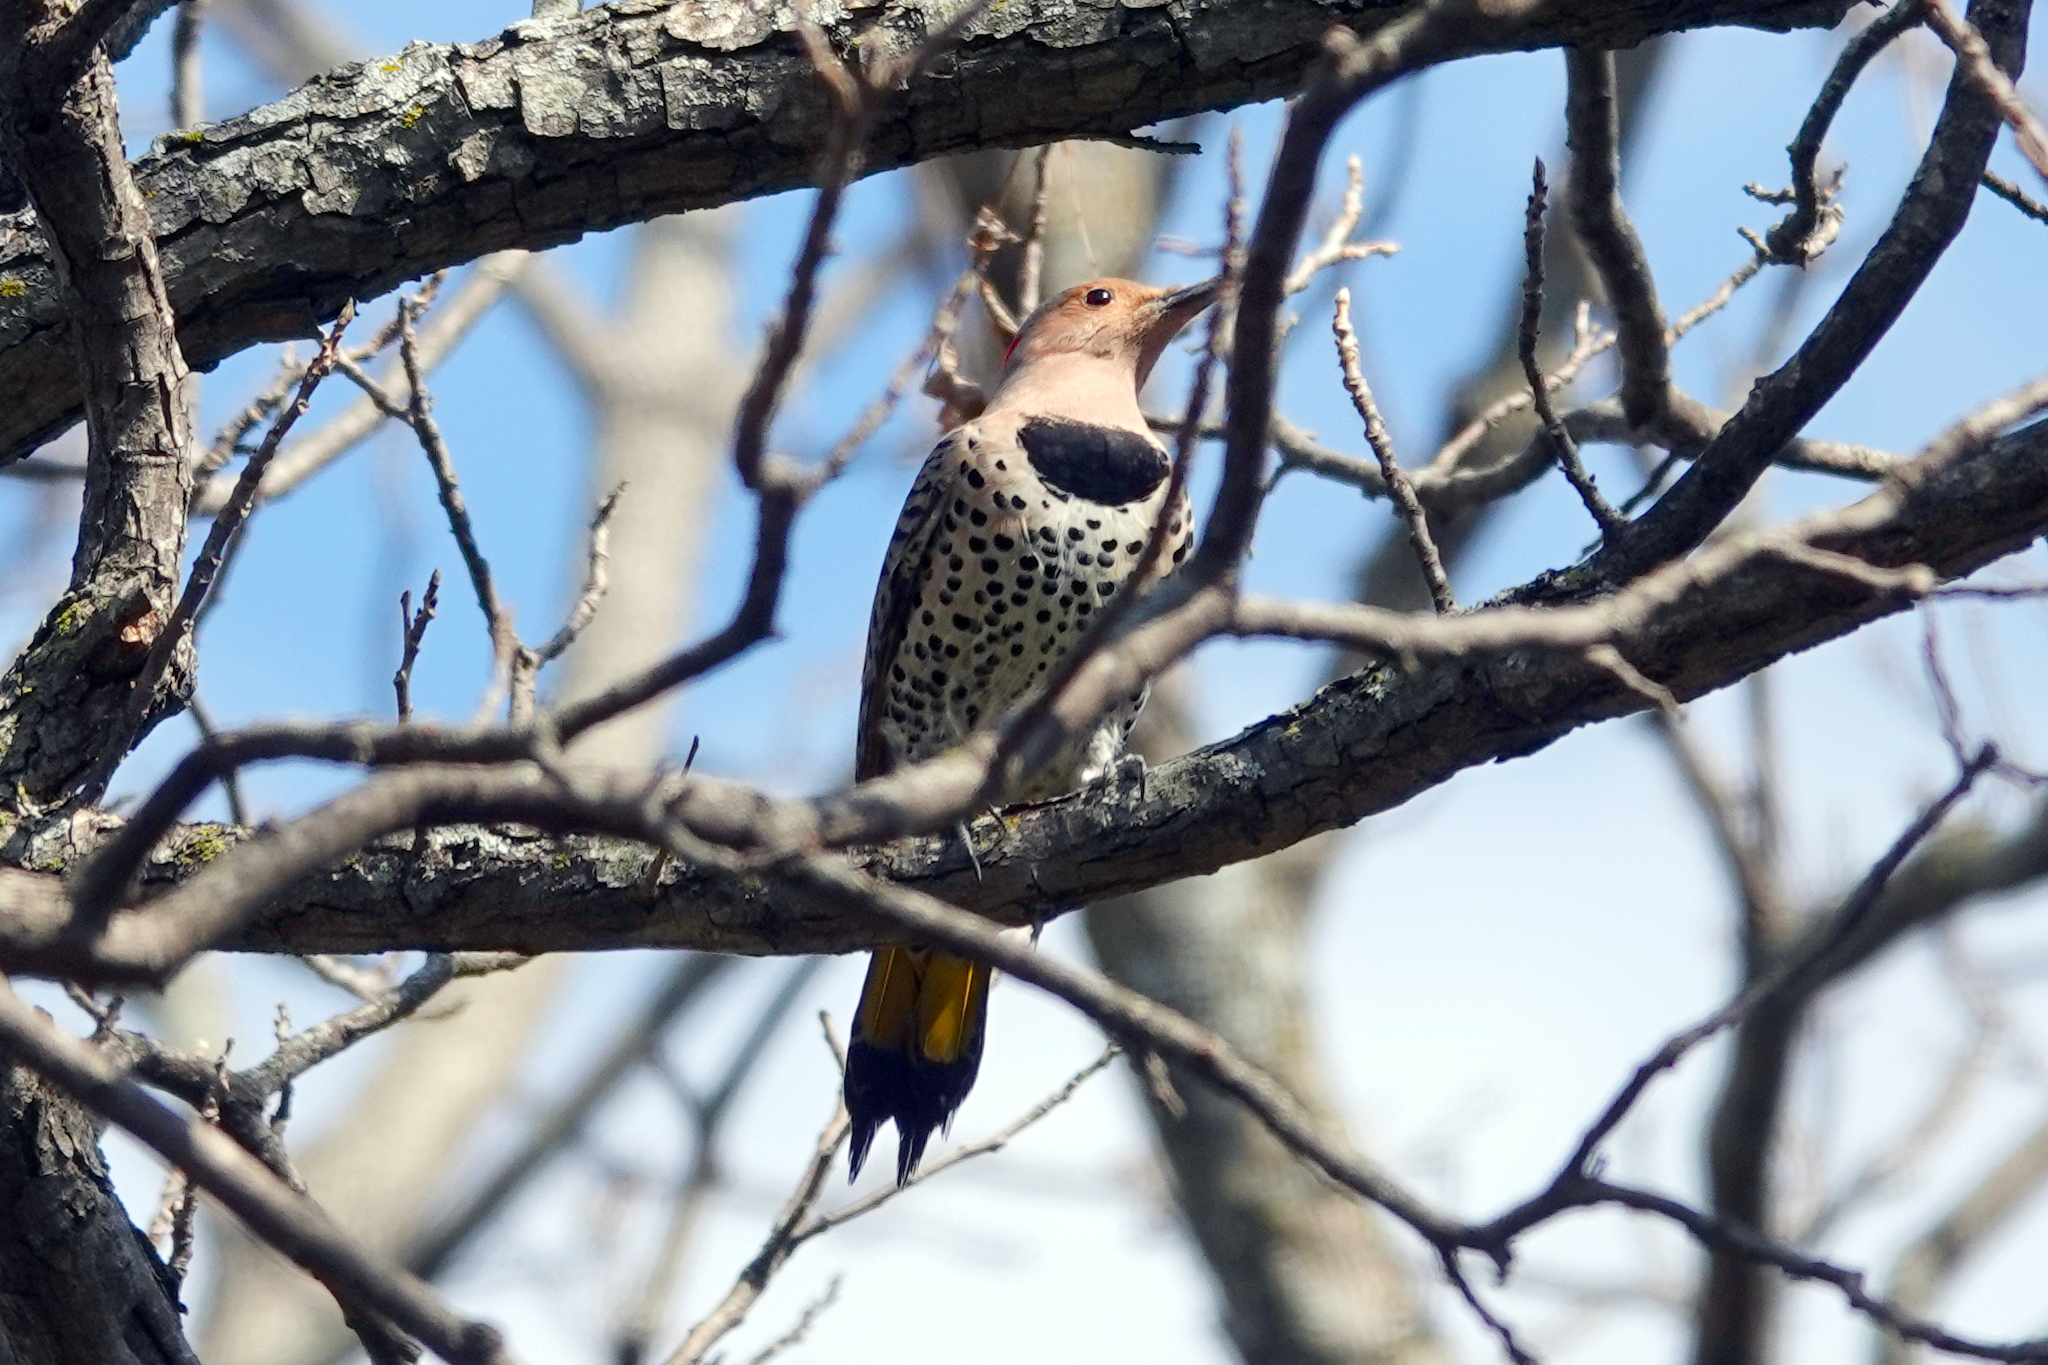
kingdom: Animalia
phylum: Chordata
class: Aves
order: Piciformes
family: Picidae
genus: Colaptes
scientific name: Colaptes auratus
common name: Northern flicker
